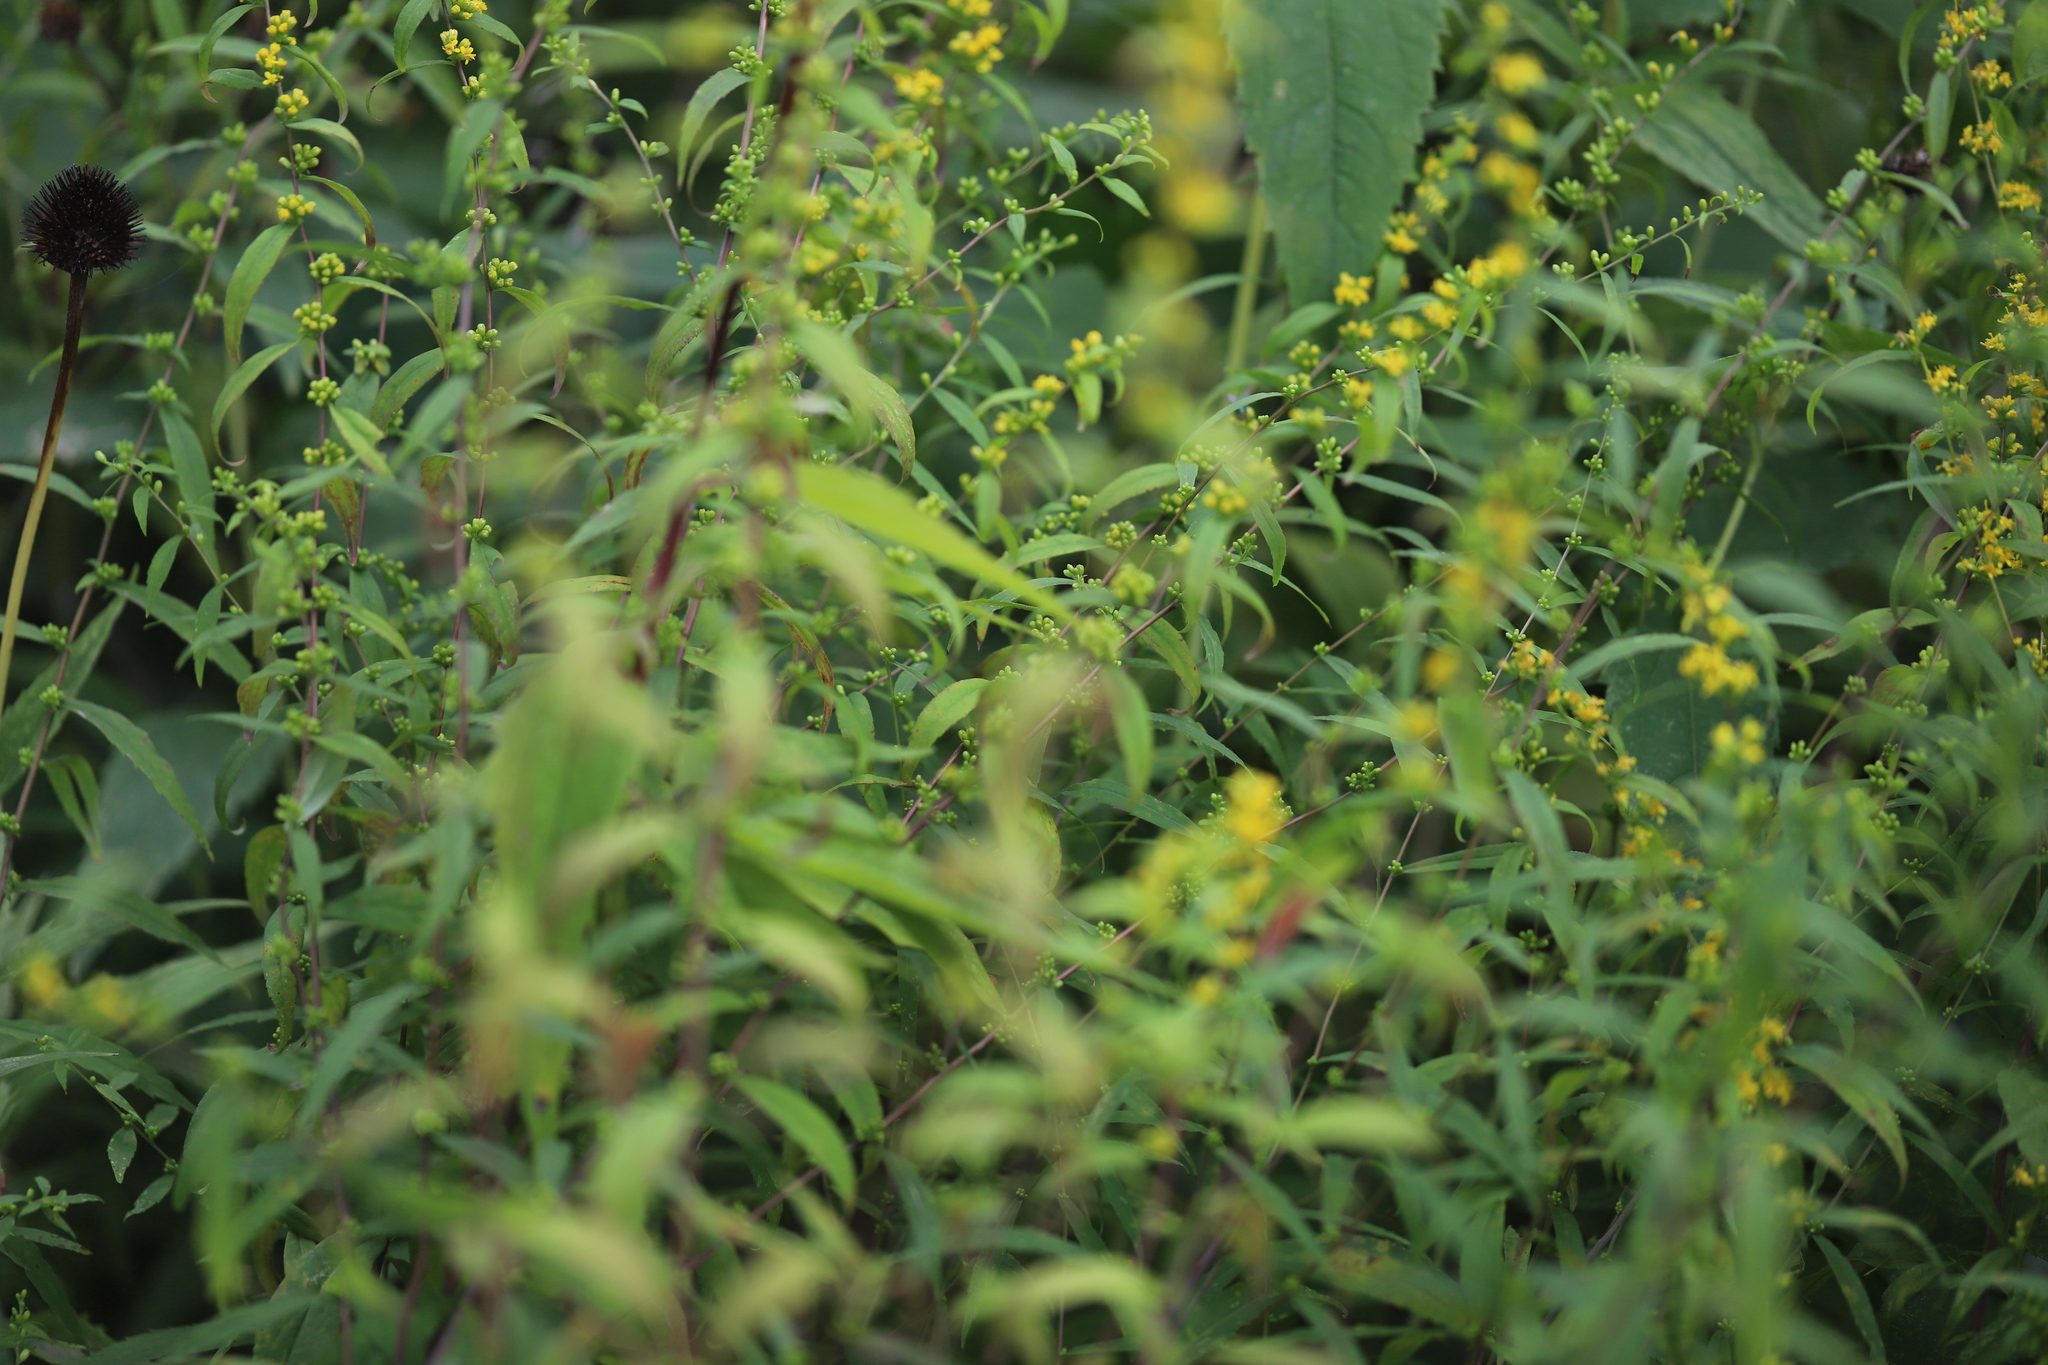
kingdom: Plantae
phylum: Tracheophyta
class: Magnoliopsida
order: Asterales
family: Asteraceae
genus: Solidago
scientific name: Solidago caesia
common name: Woodland goldenrod
